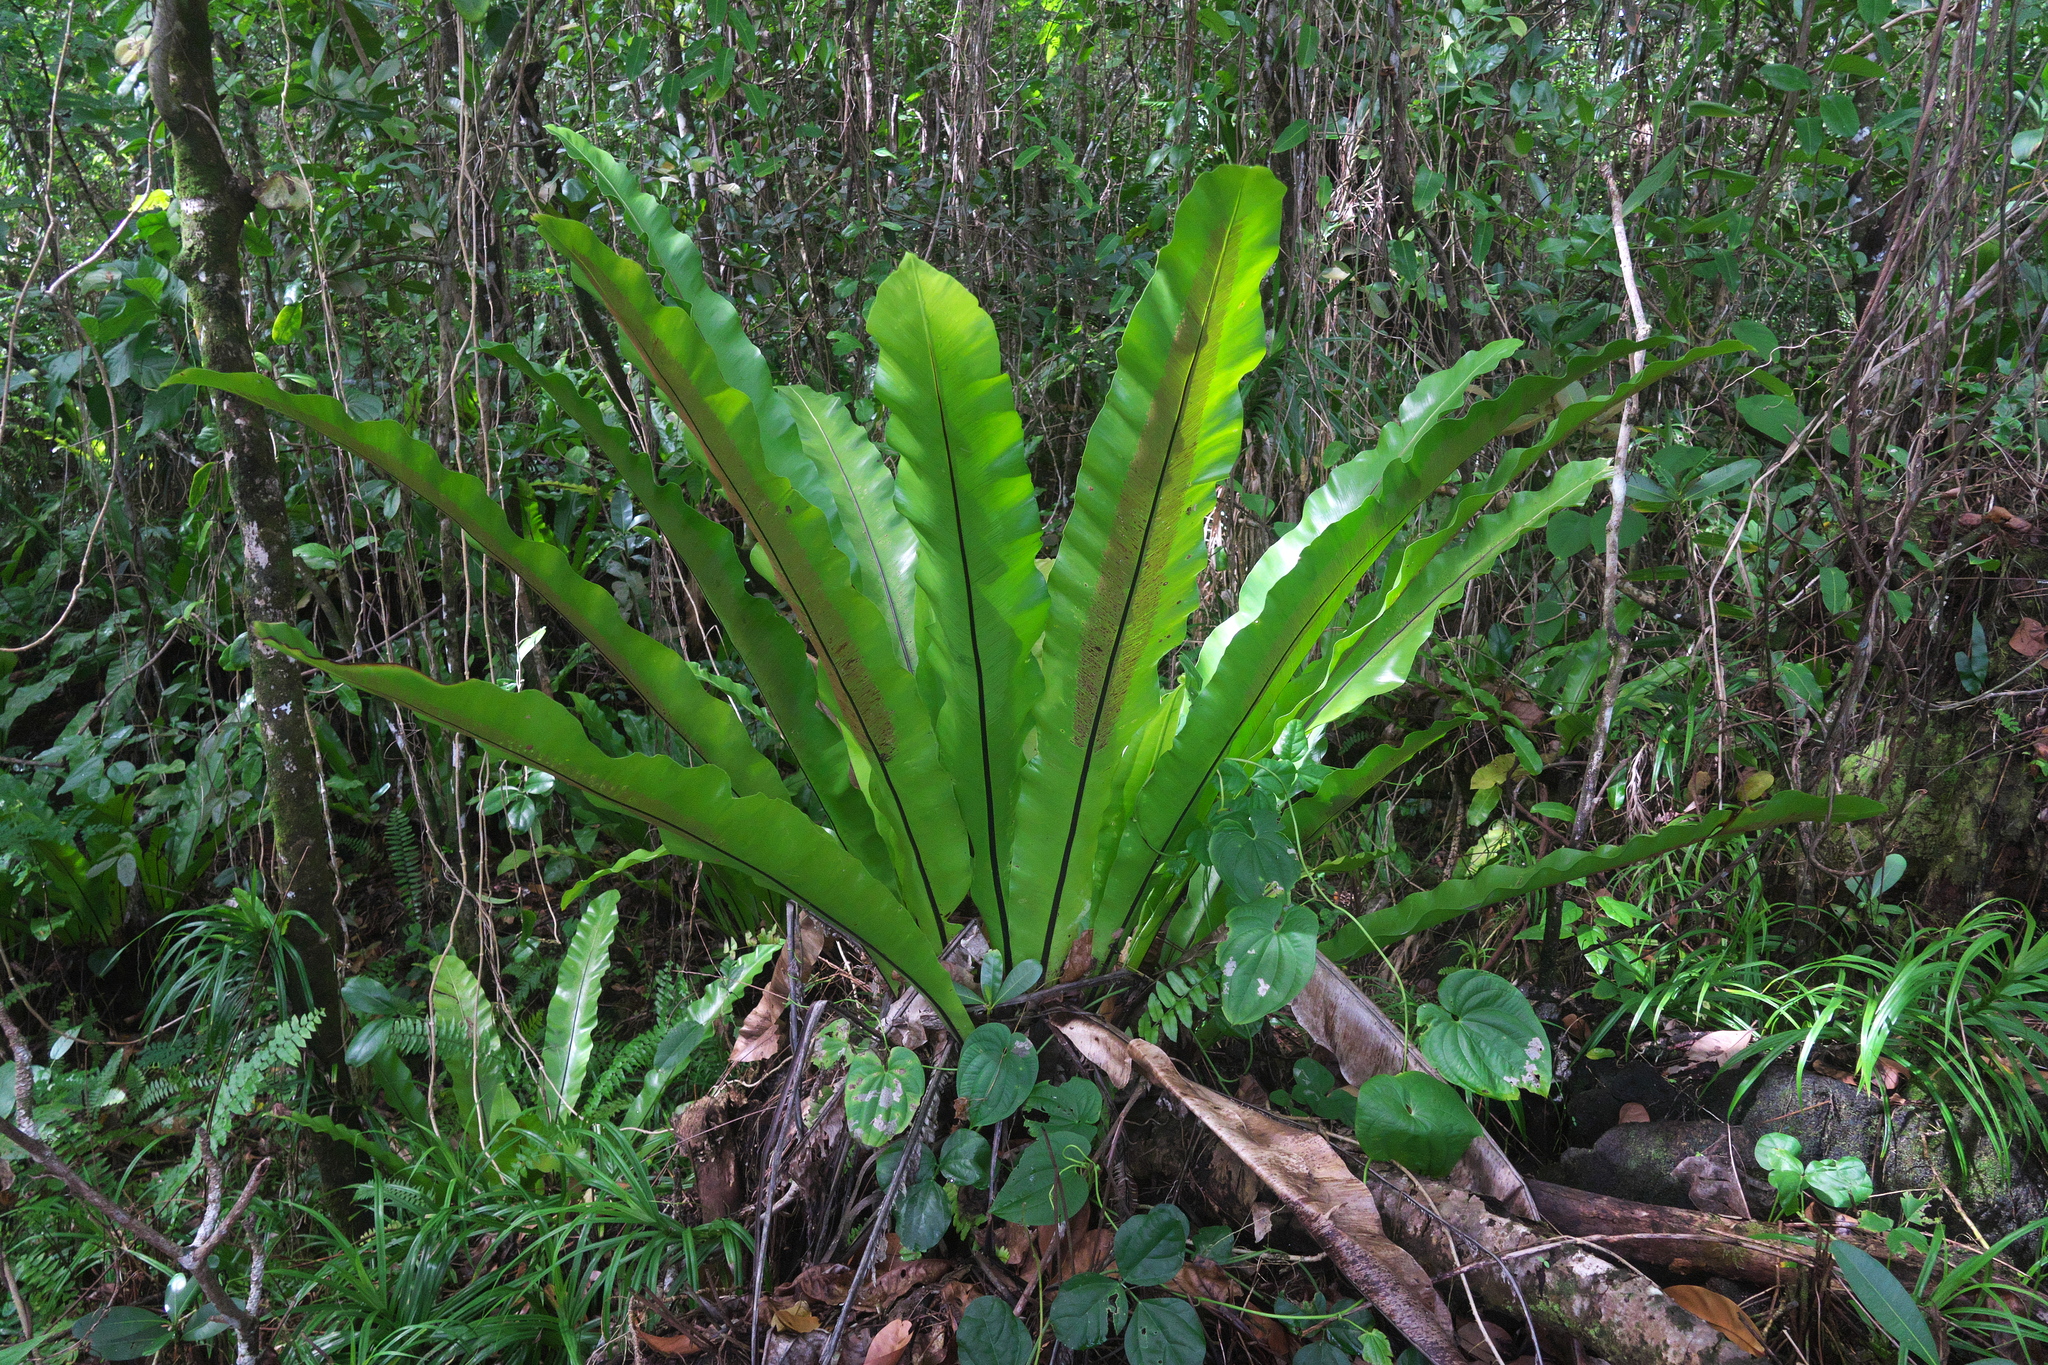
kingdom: Plantae
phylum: Tracheophyta
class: Polypodiopsida
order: Polypodiales
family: Aspleniaceae
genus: Asplenium
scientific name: Asplenium nidus
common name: Bird's-nest fern
